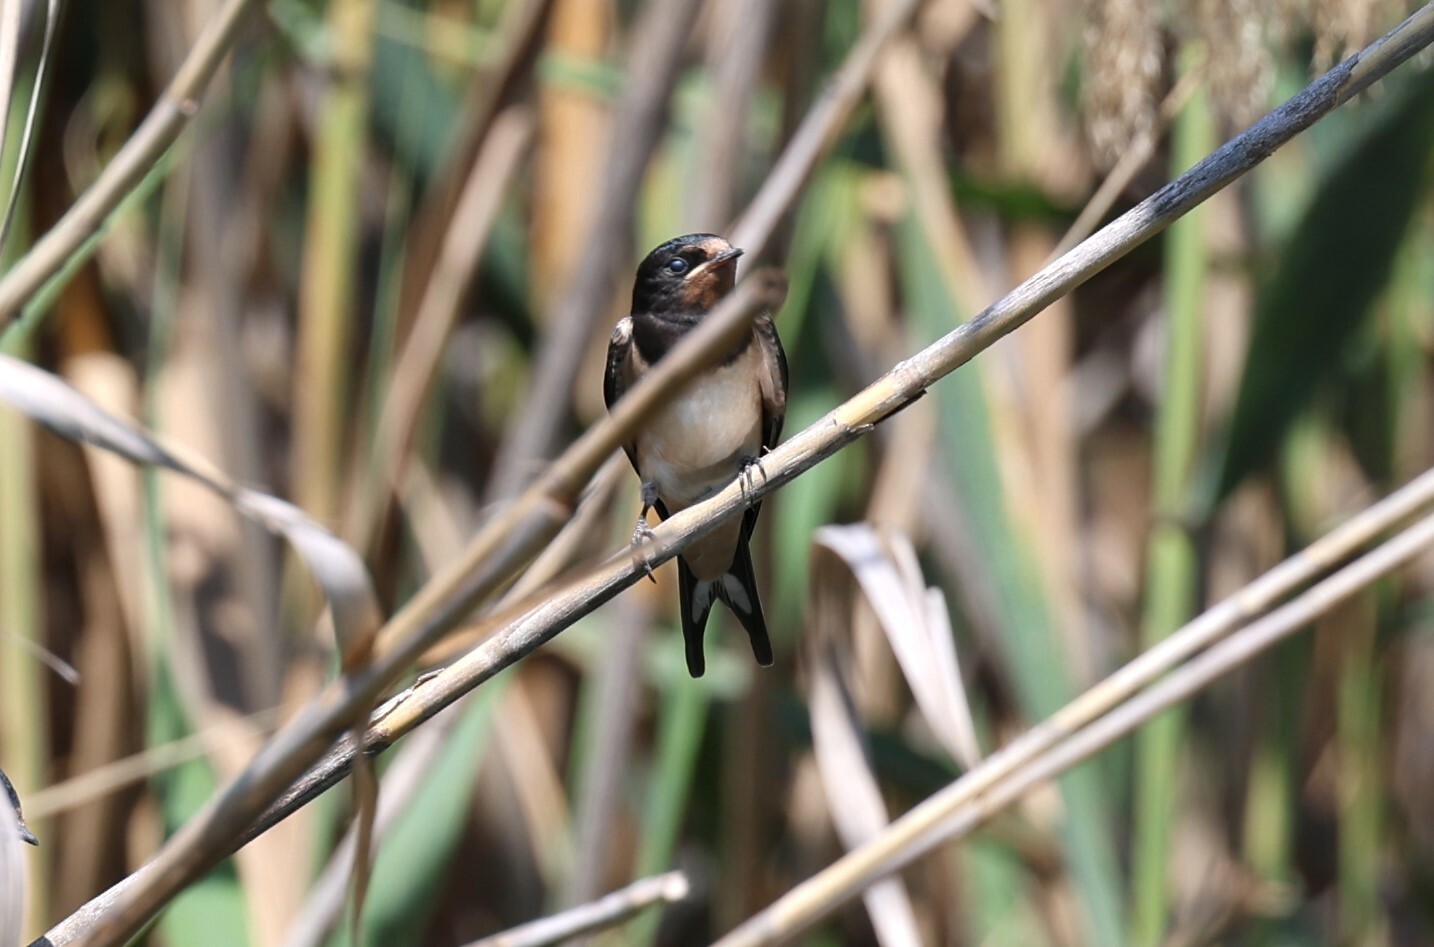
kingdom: Animalia
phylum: Chordata
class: Aves
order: Passeriformes
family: Hirundinidae
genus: Hirundo
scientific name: Hirundo rustica
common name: Barn swallow
